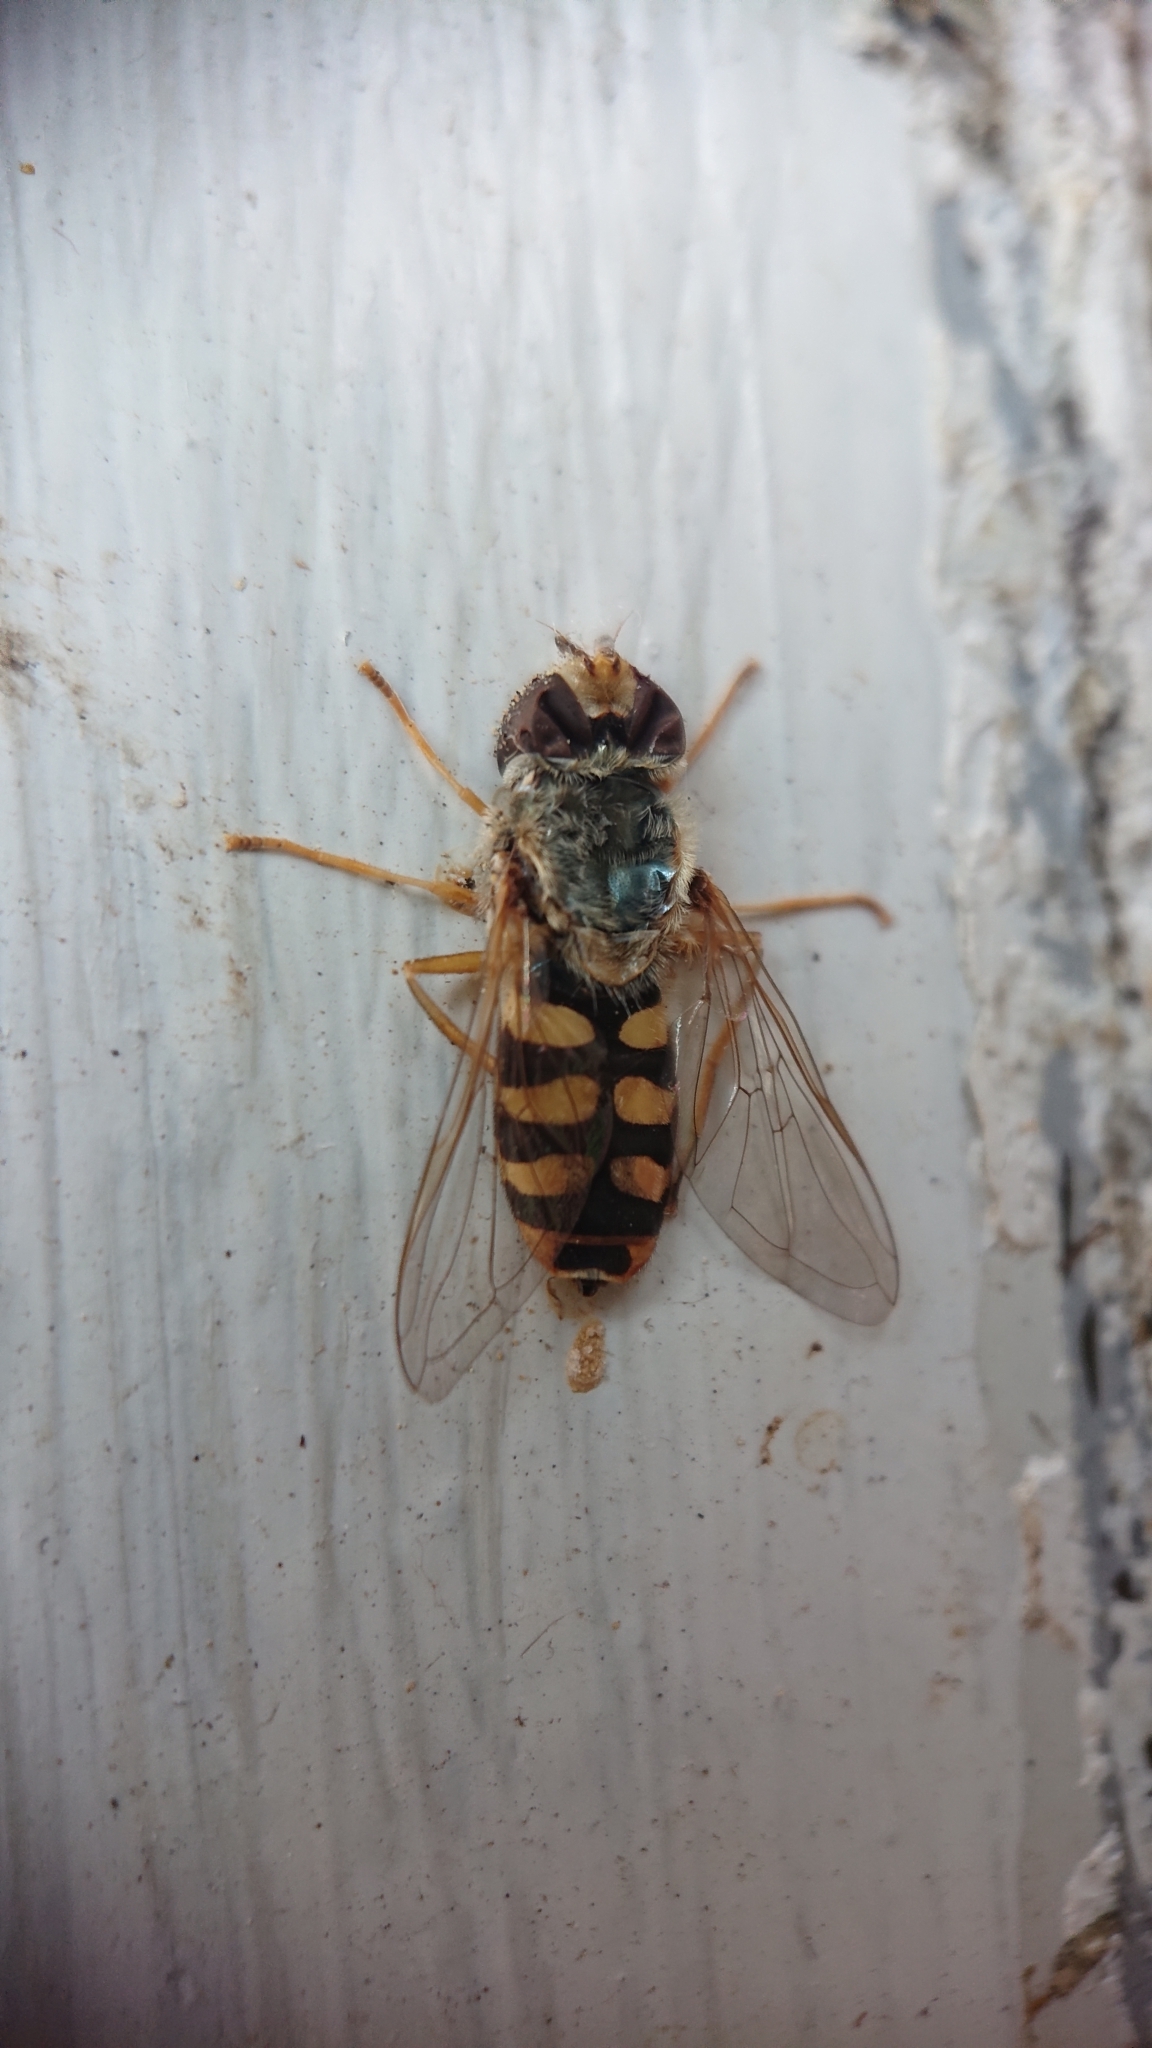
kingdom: Animalia
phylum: Arthropoda
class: Insecta
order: Diptera
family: Syrphidae
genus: Eupeodes
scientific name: Eupeodes corollae
